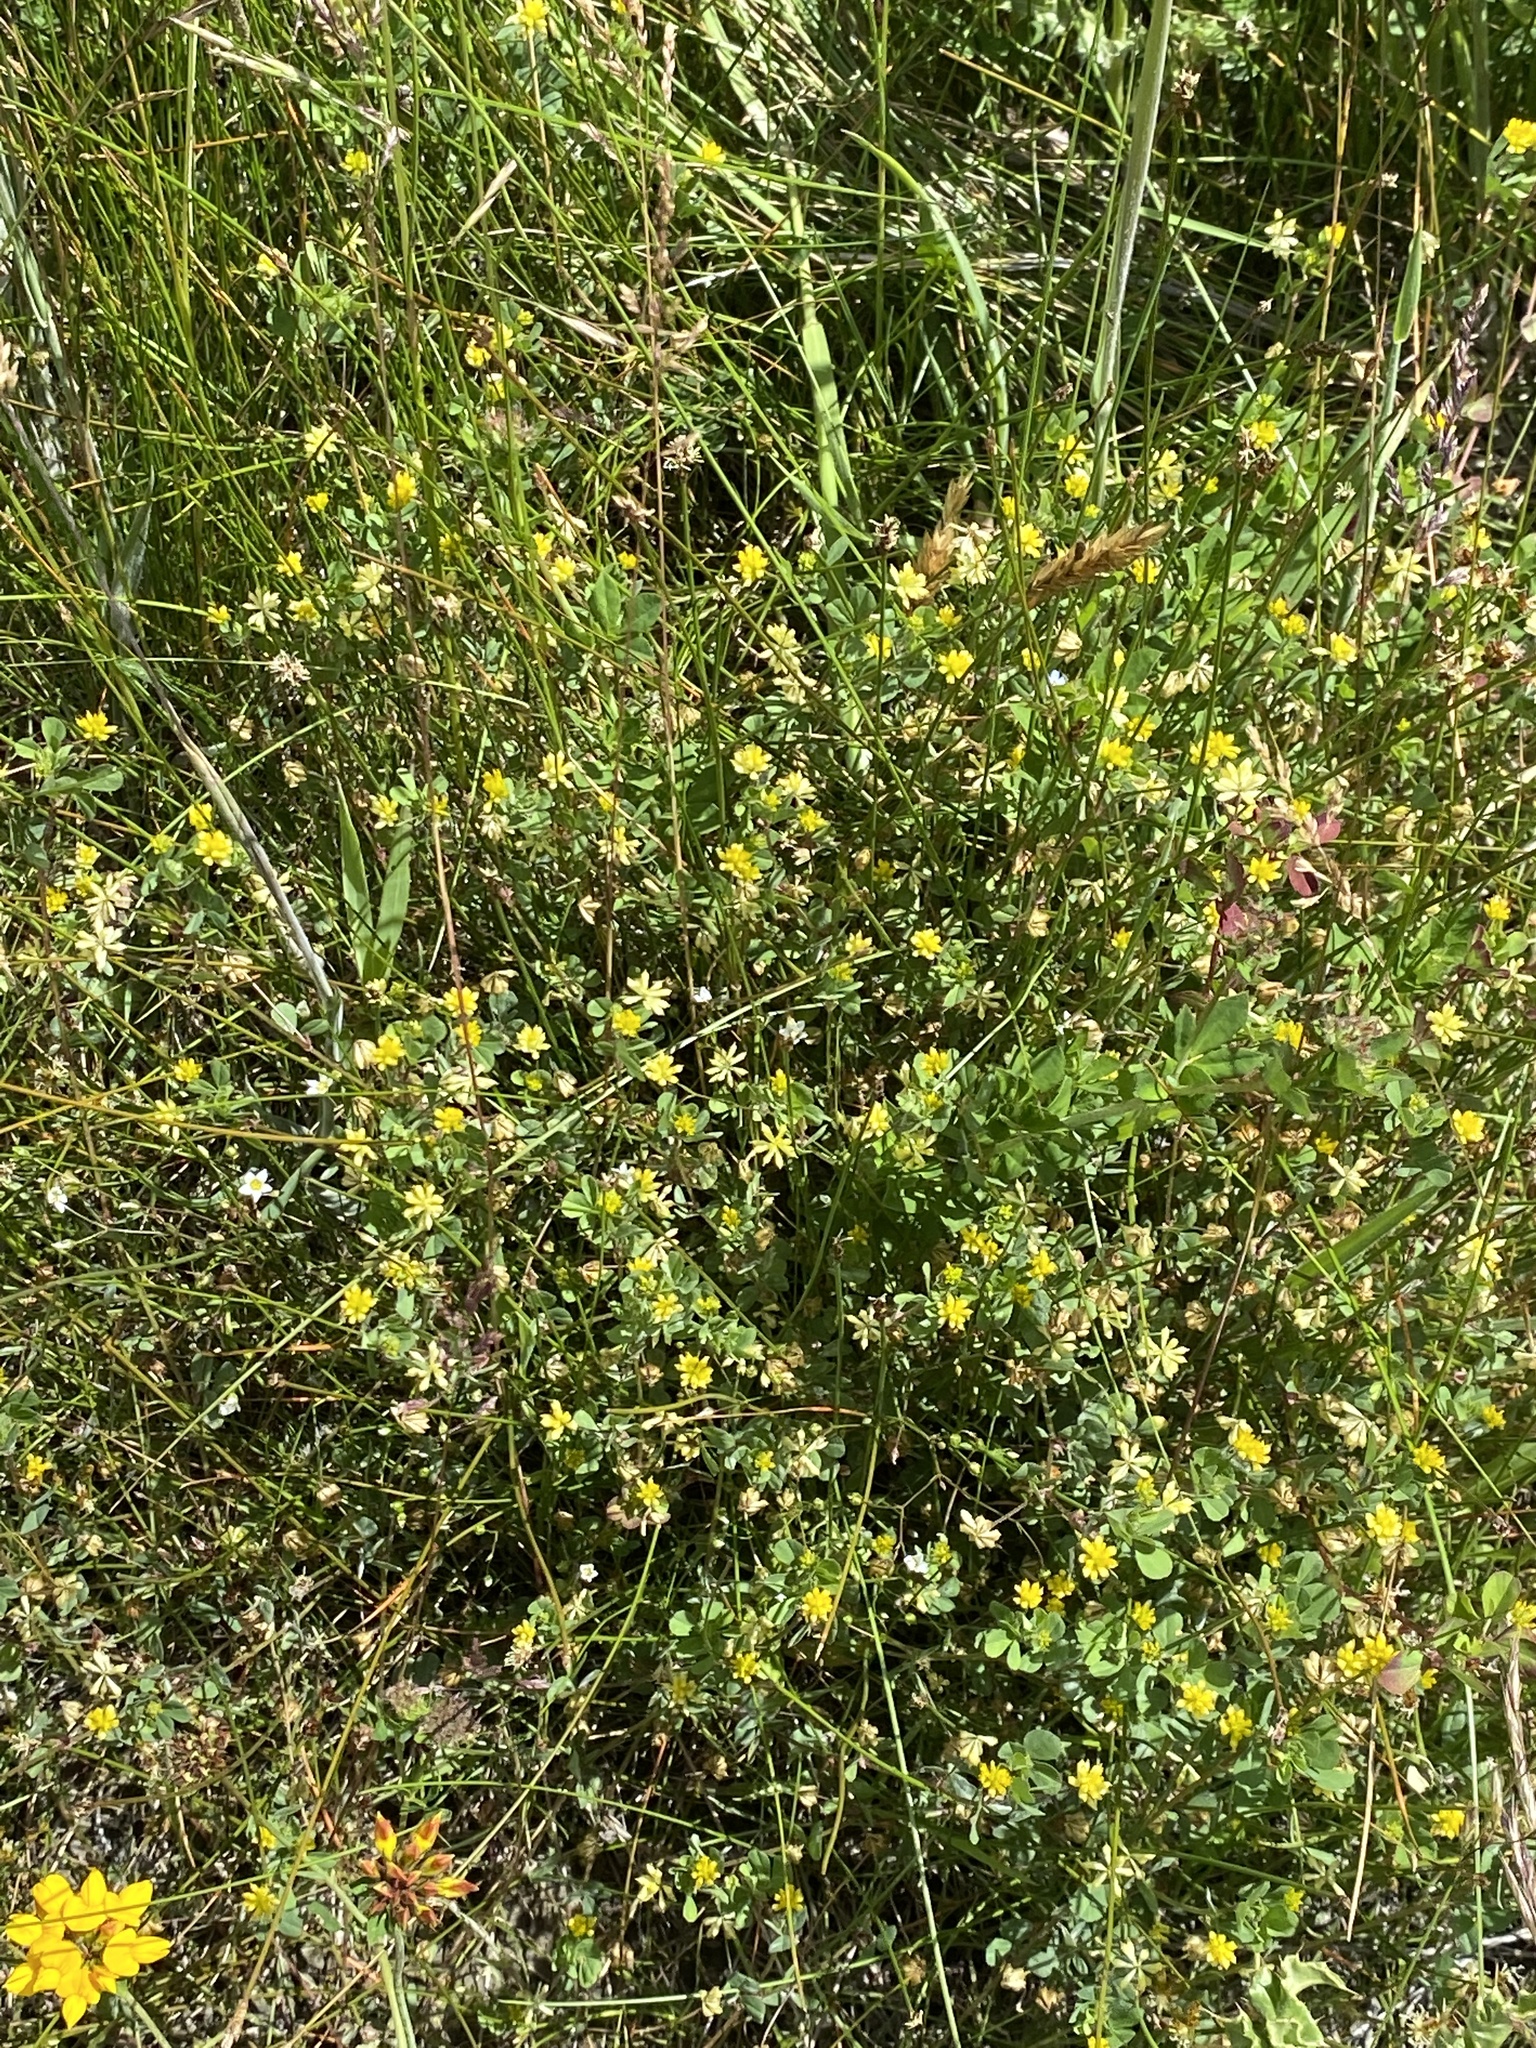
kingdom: Plantae
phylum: Tracheophyta
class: Magnoliopsida
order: Fabales
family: Fabaceae
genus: Trifolium
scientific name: Trifolium dubium
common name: Suckling clover
